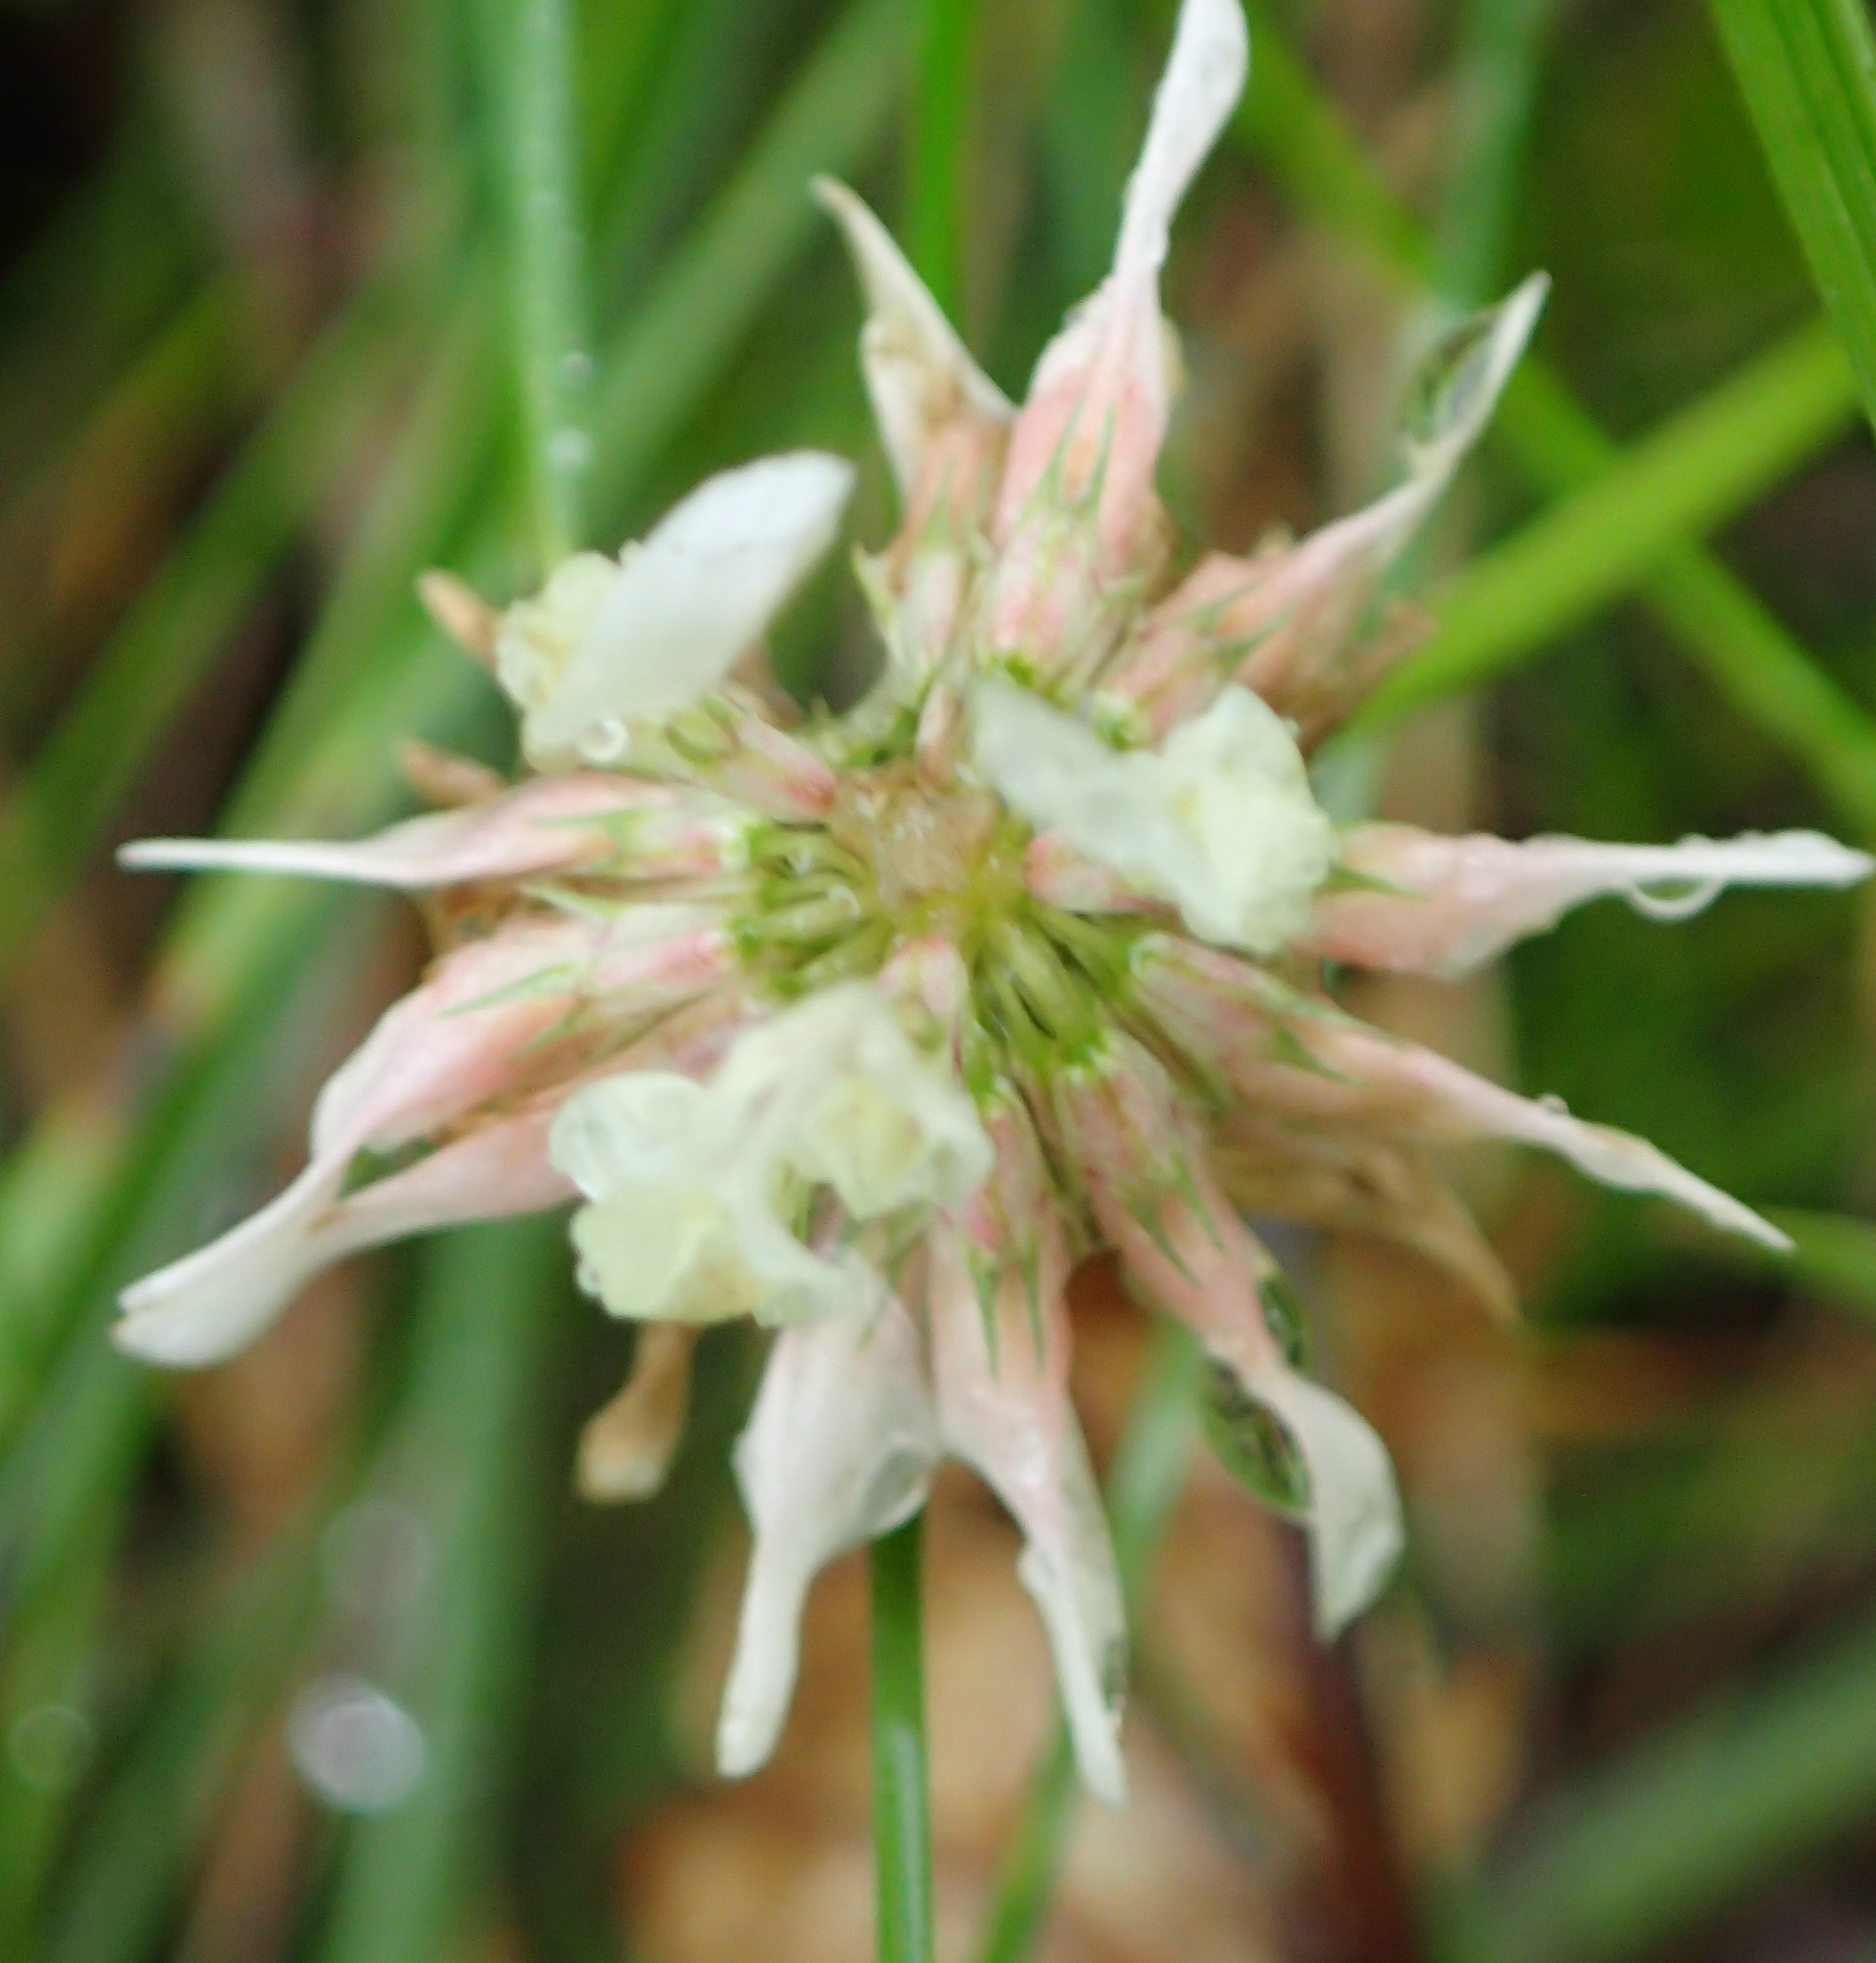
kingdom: Plantae
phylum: Tracheophyta
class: Magnoliopsida
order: Fabales
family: Fabaceae
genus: Trifolium
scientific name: Trifolium repens
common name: White clover
